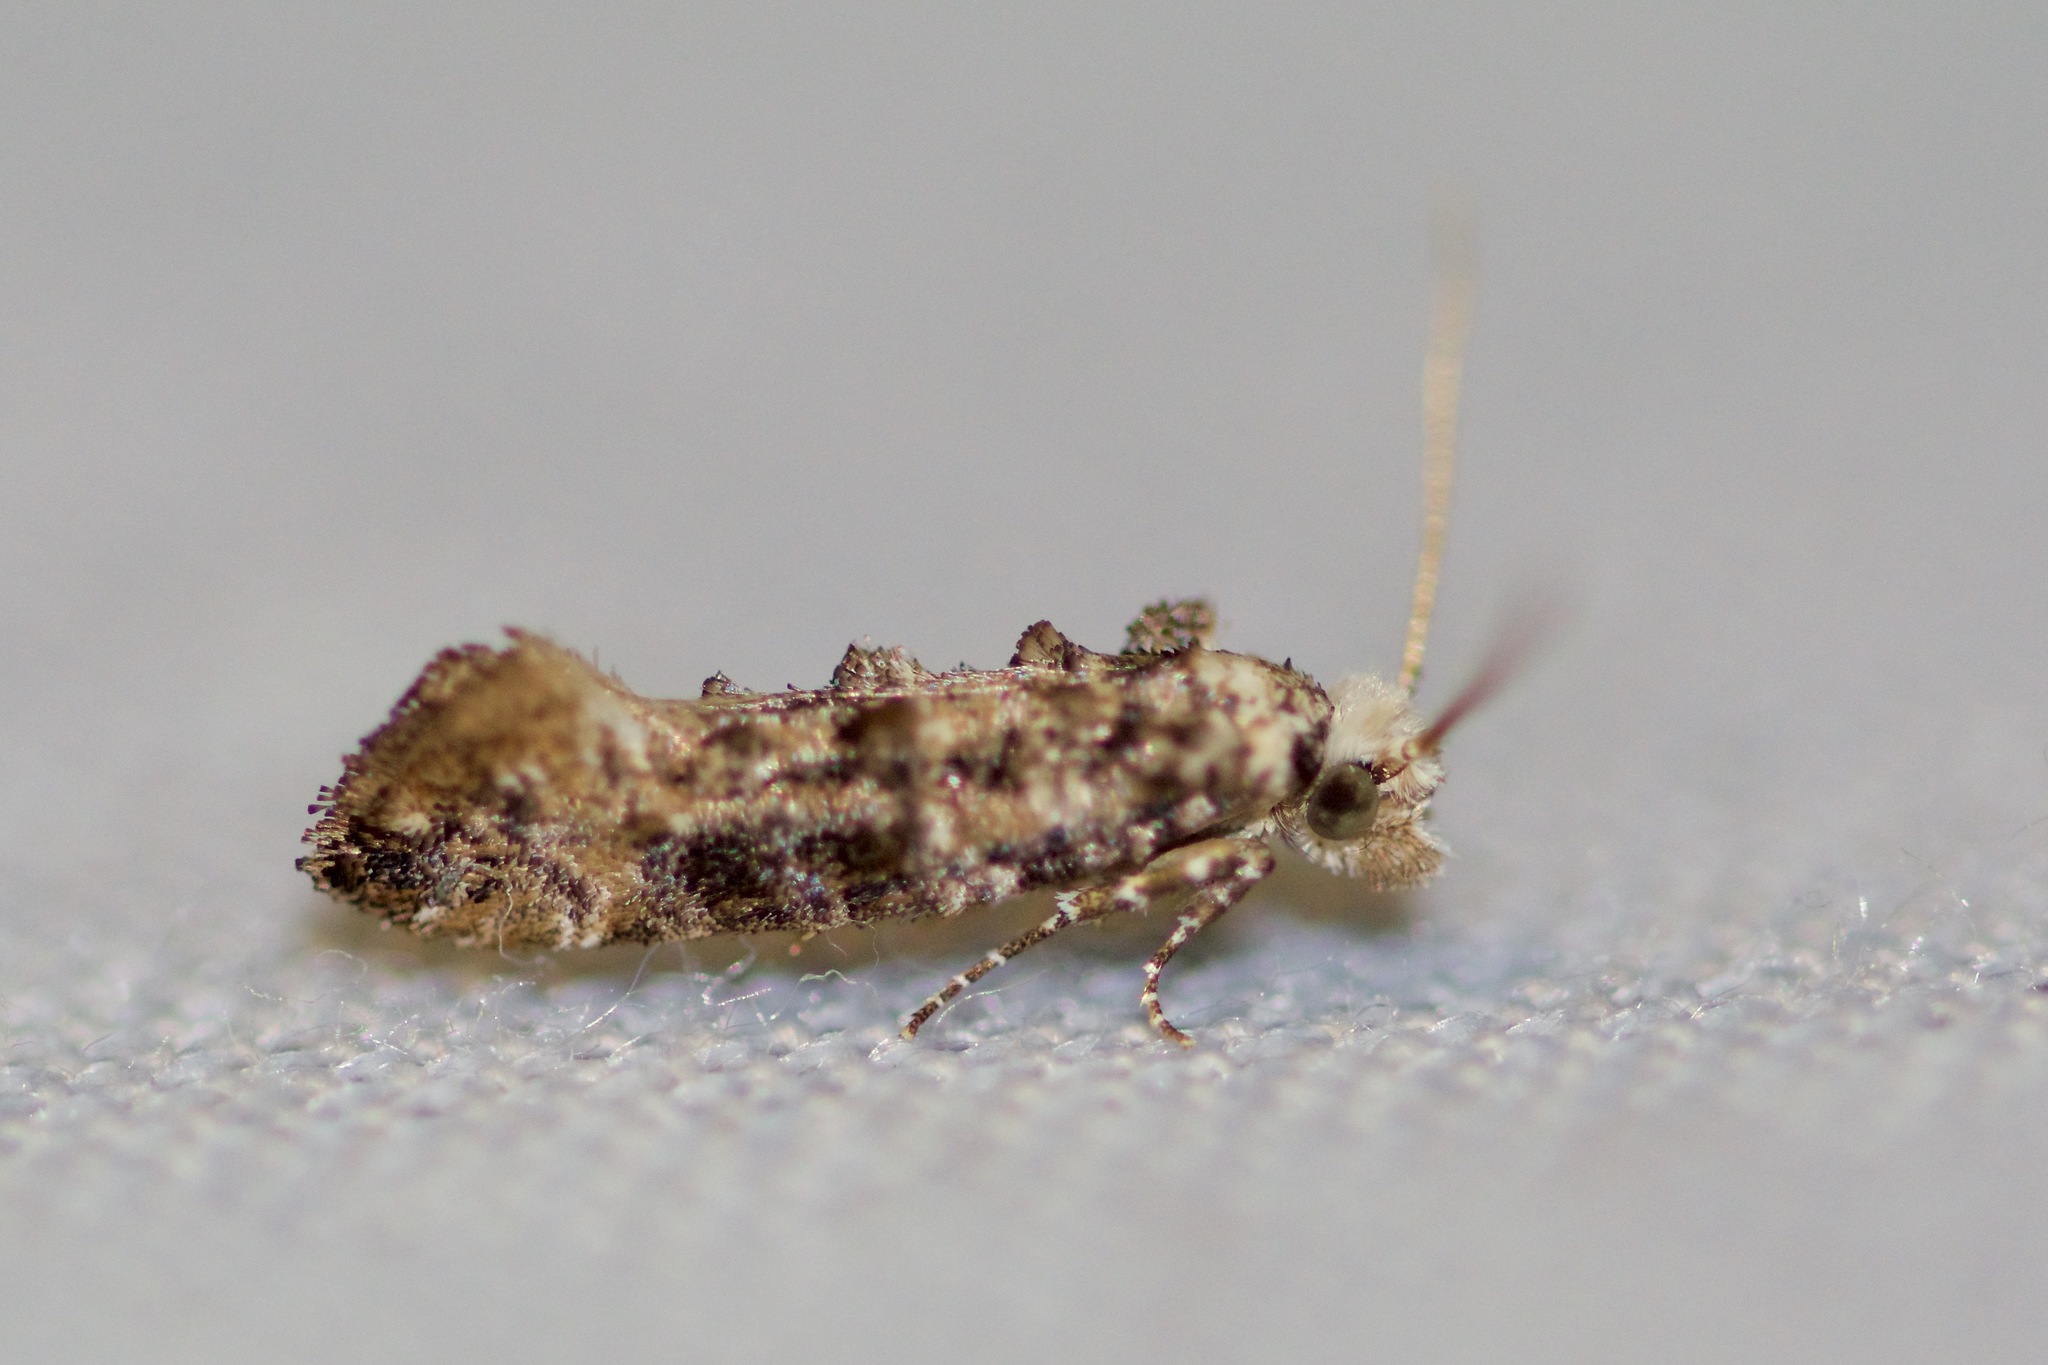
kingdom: Animalia
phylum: Arthropoda
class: Insecta
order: Lepidoptera
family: Tineidae
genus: Xylesthia
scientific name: Xylesthia pruniramiella
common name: Clemens' bark moth
